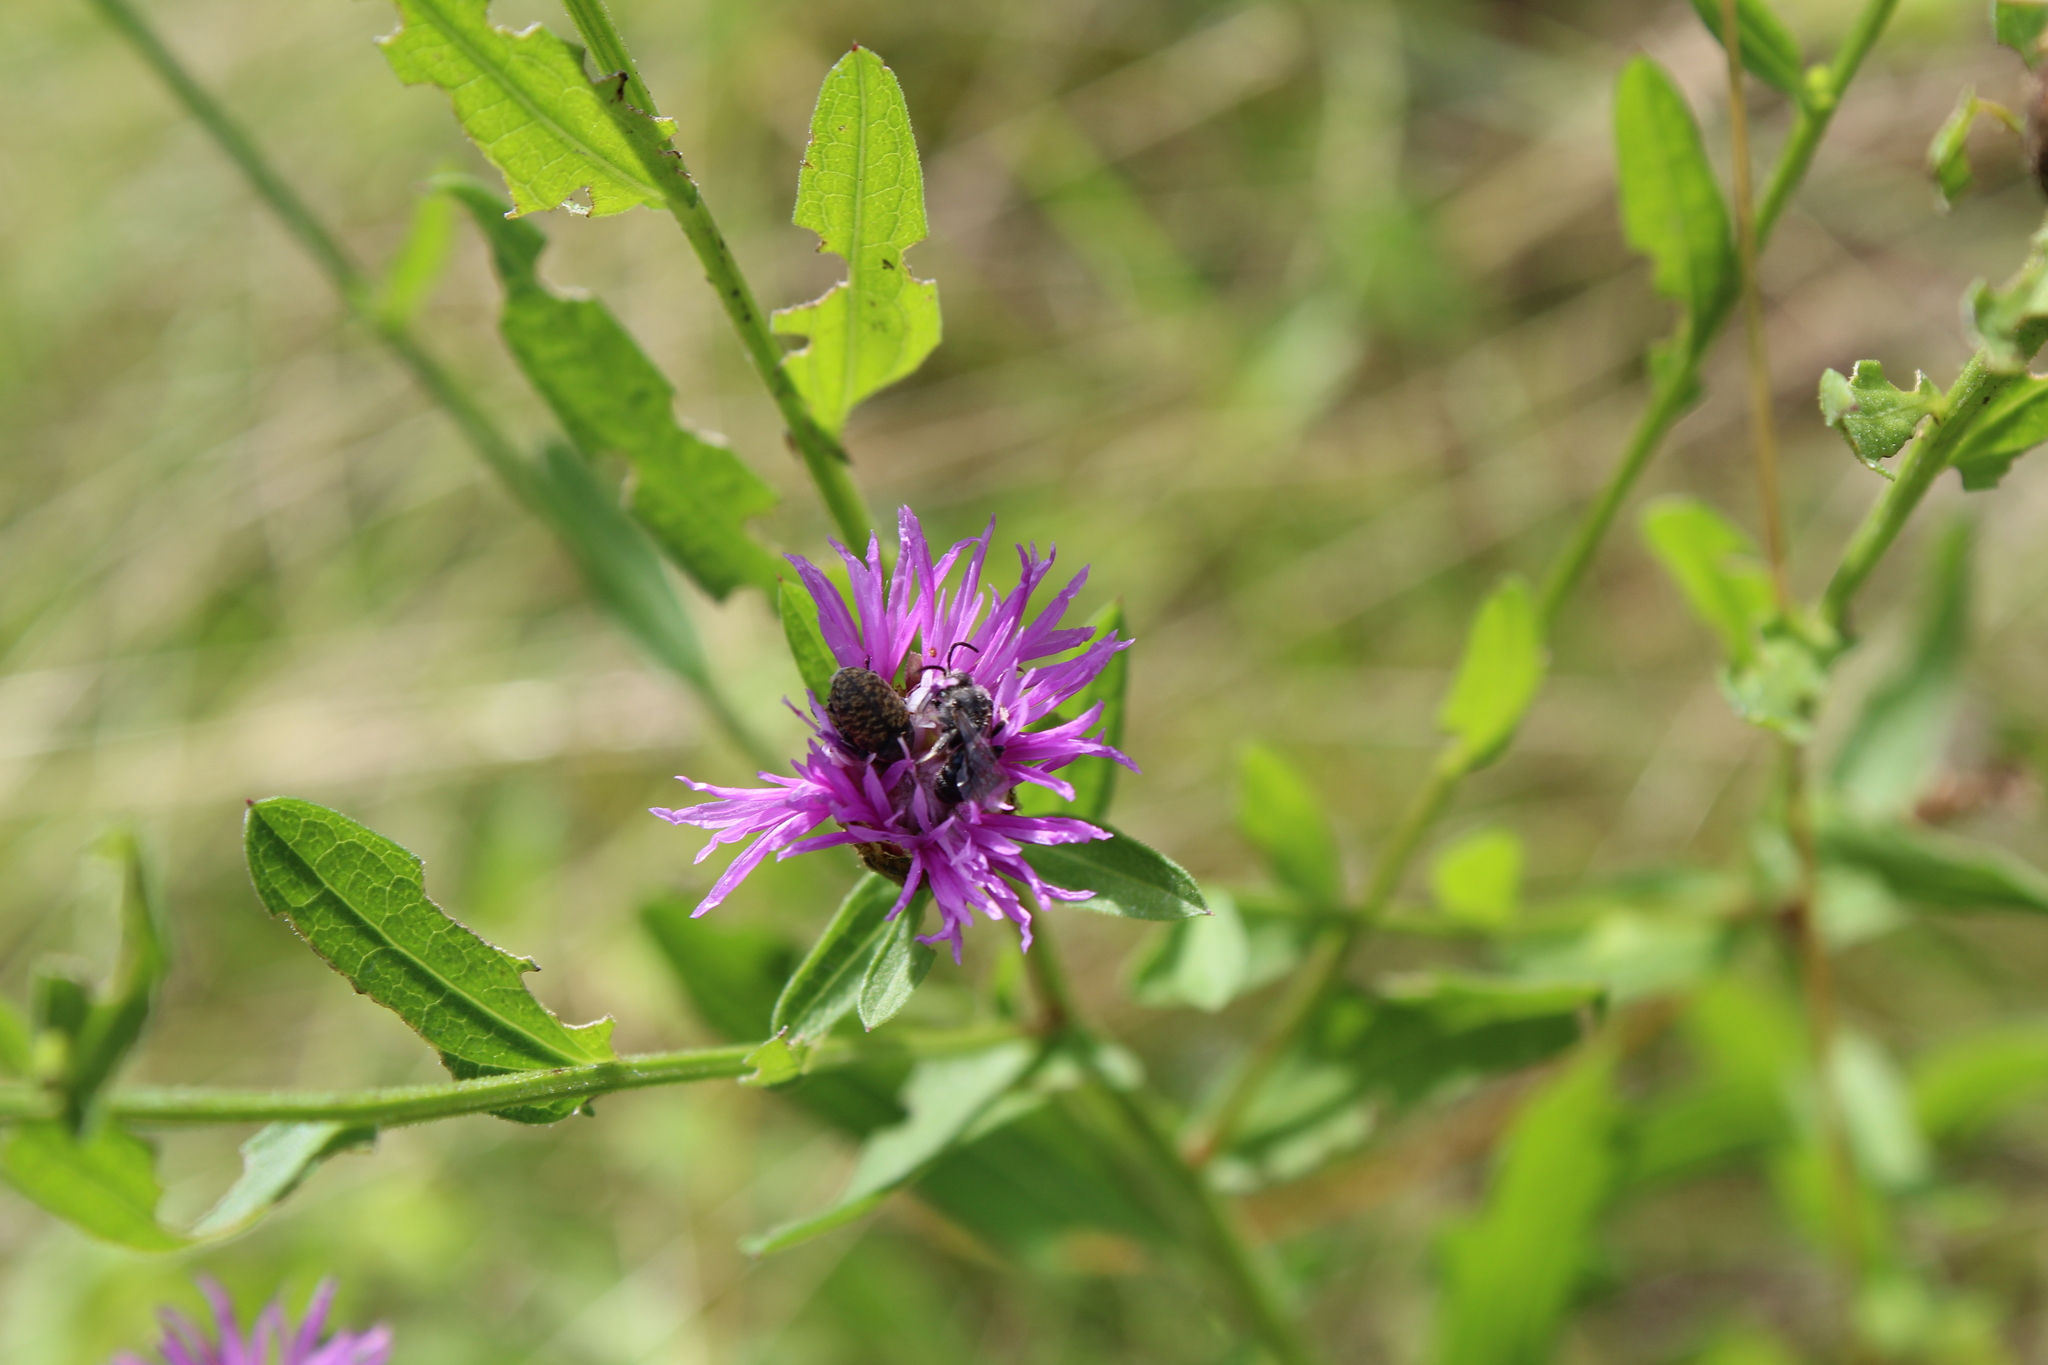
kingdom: Animalia
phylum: Arthropoda
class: Insecta
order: Coleoptera
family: Curculionidae
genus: Larinus
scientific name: Larinus obtusus
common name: Weevil
